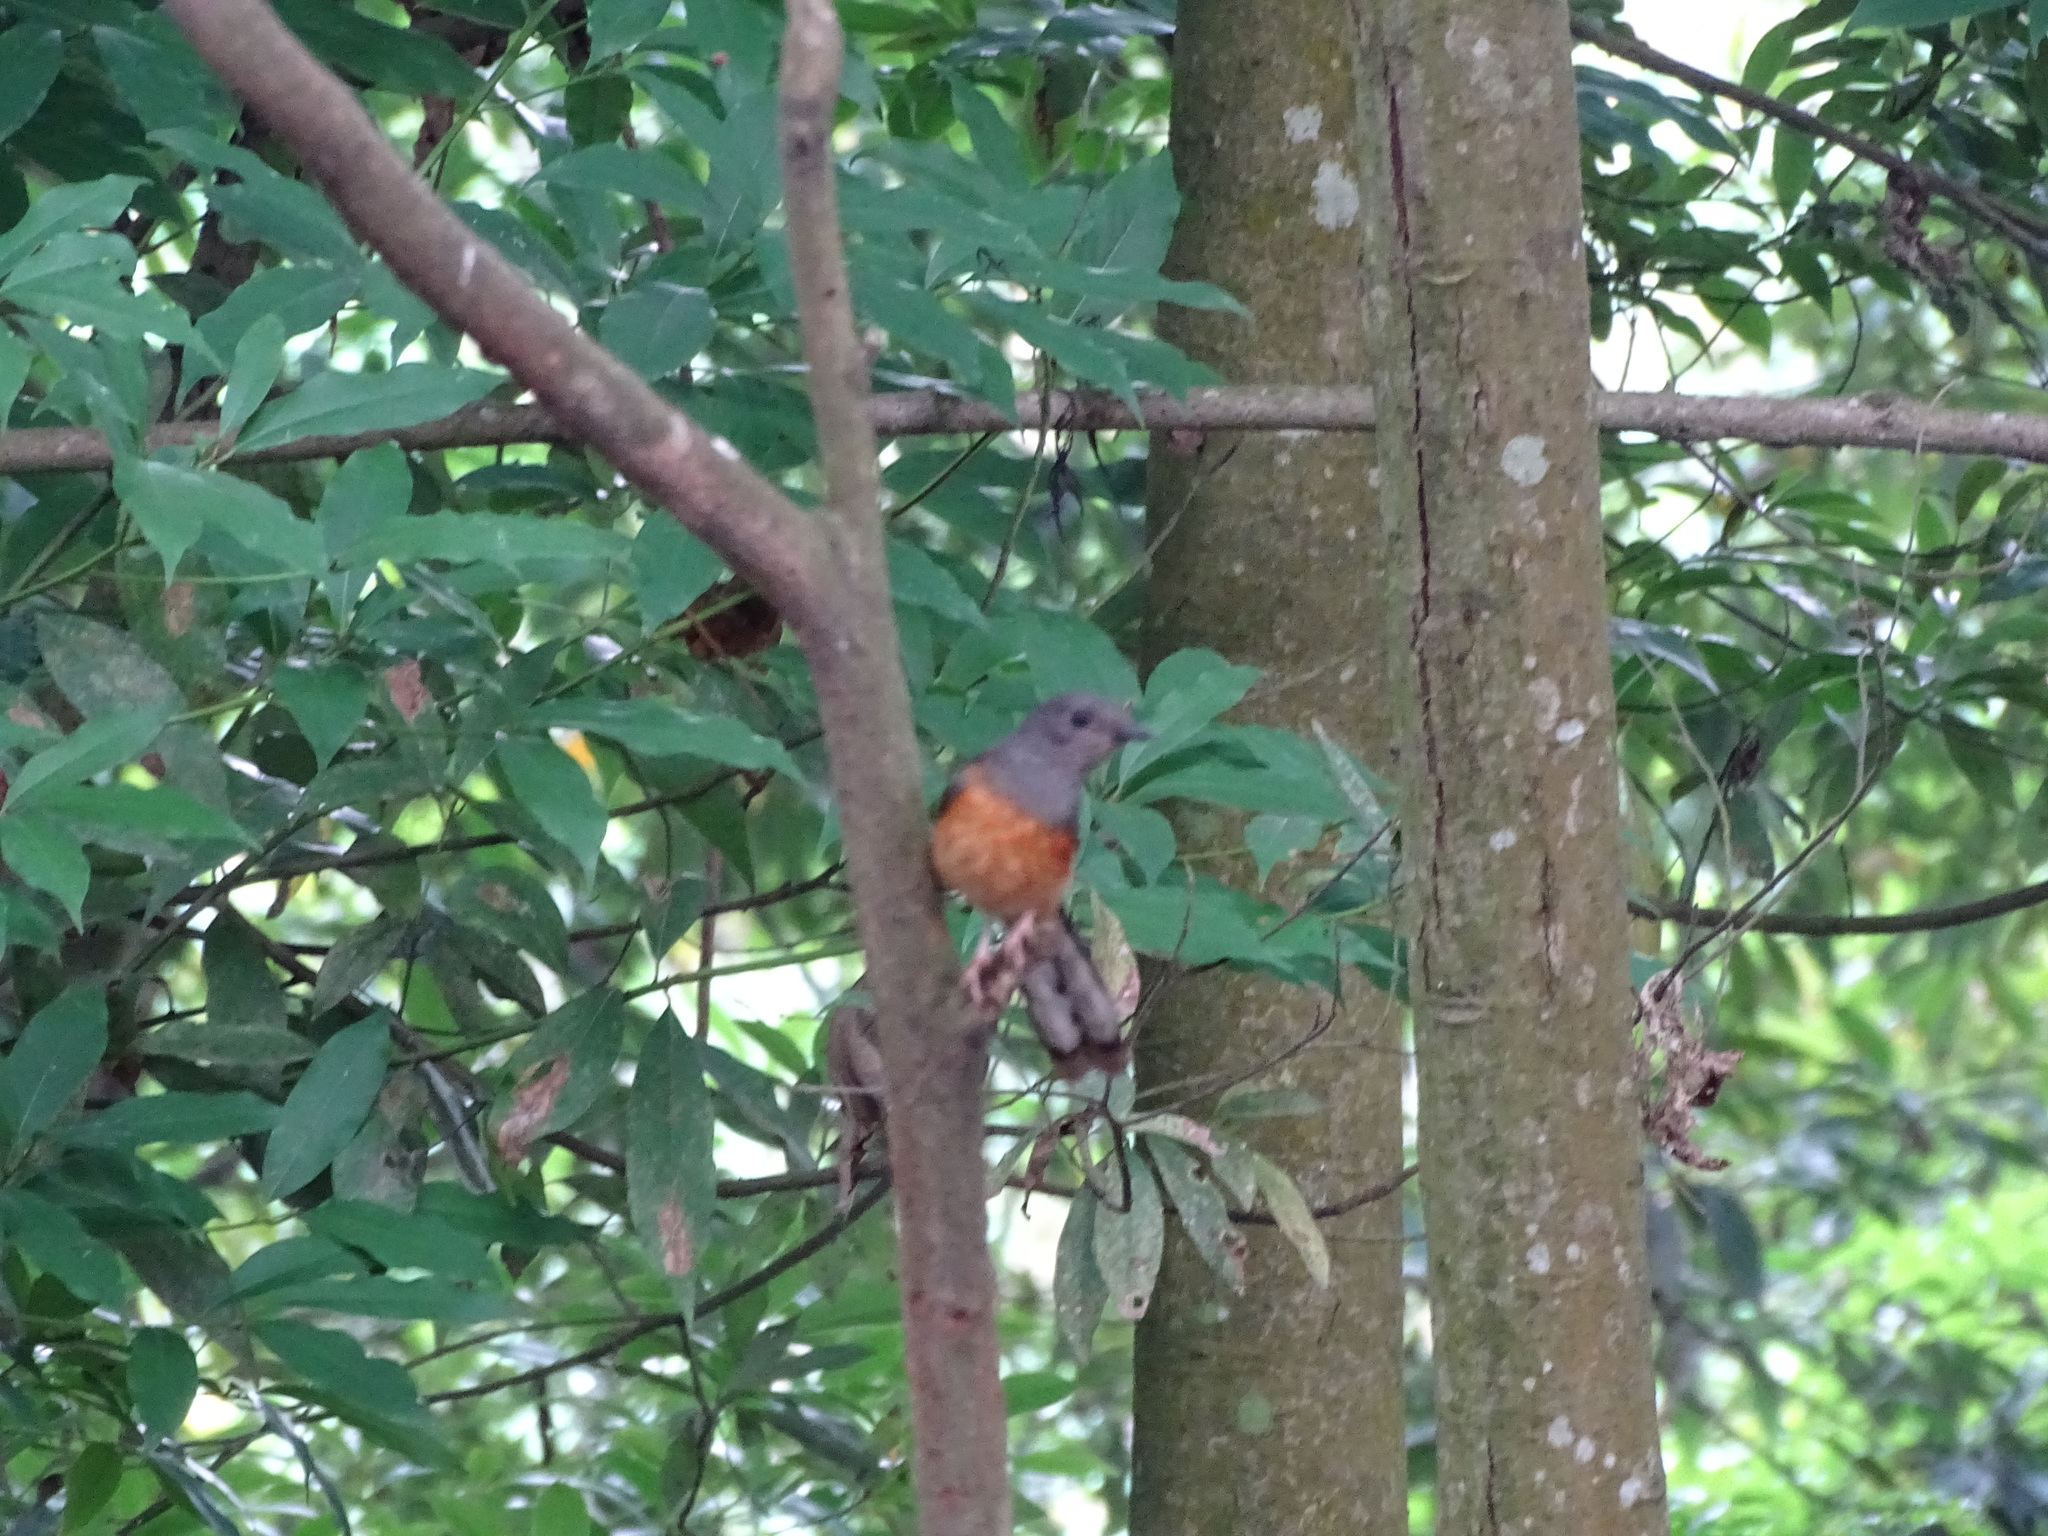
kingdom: Animalia
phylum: Chordata
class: Aves
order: Passeriformes
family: Muscicapidae
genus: Copsychus
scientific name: Copsychus malabaricus
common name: White-rumped shama
